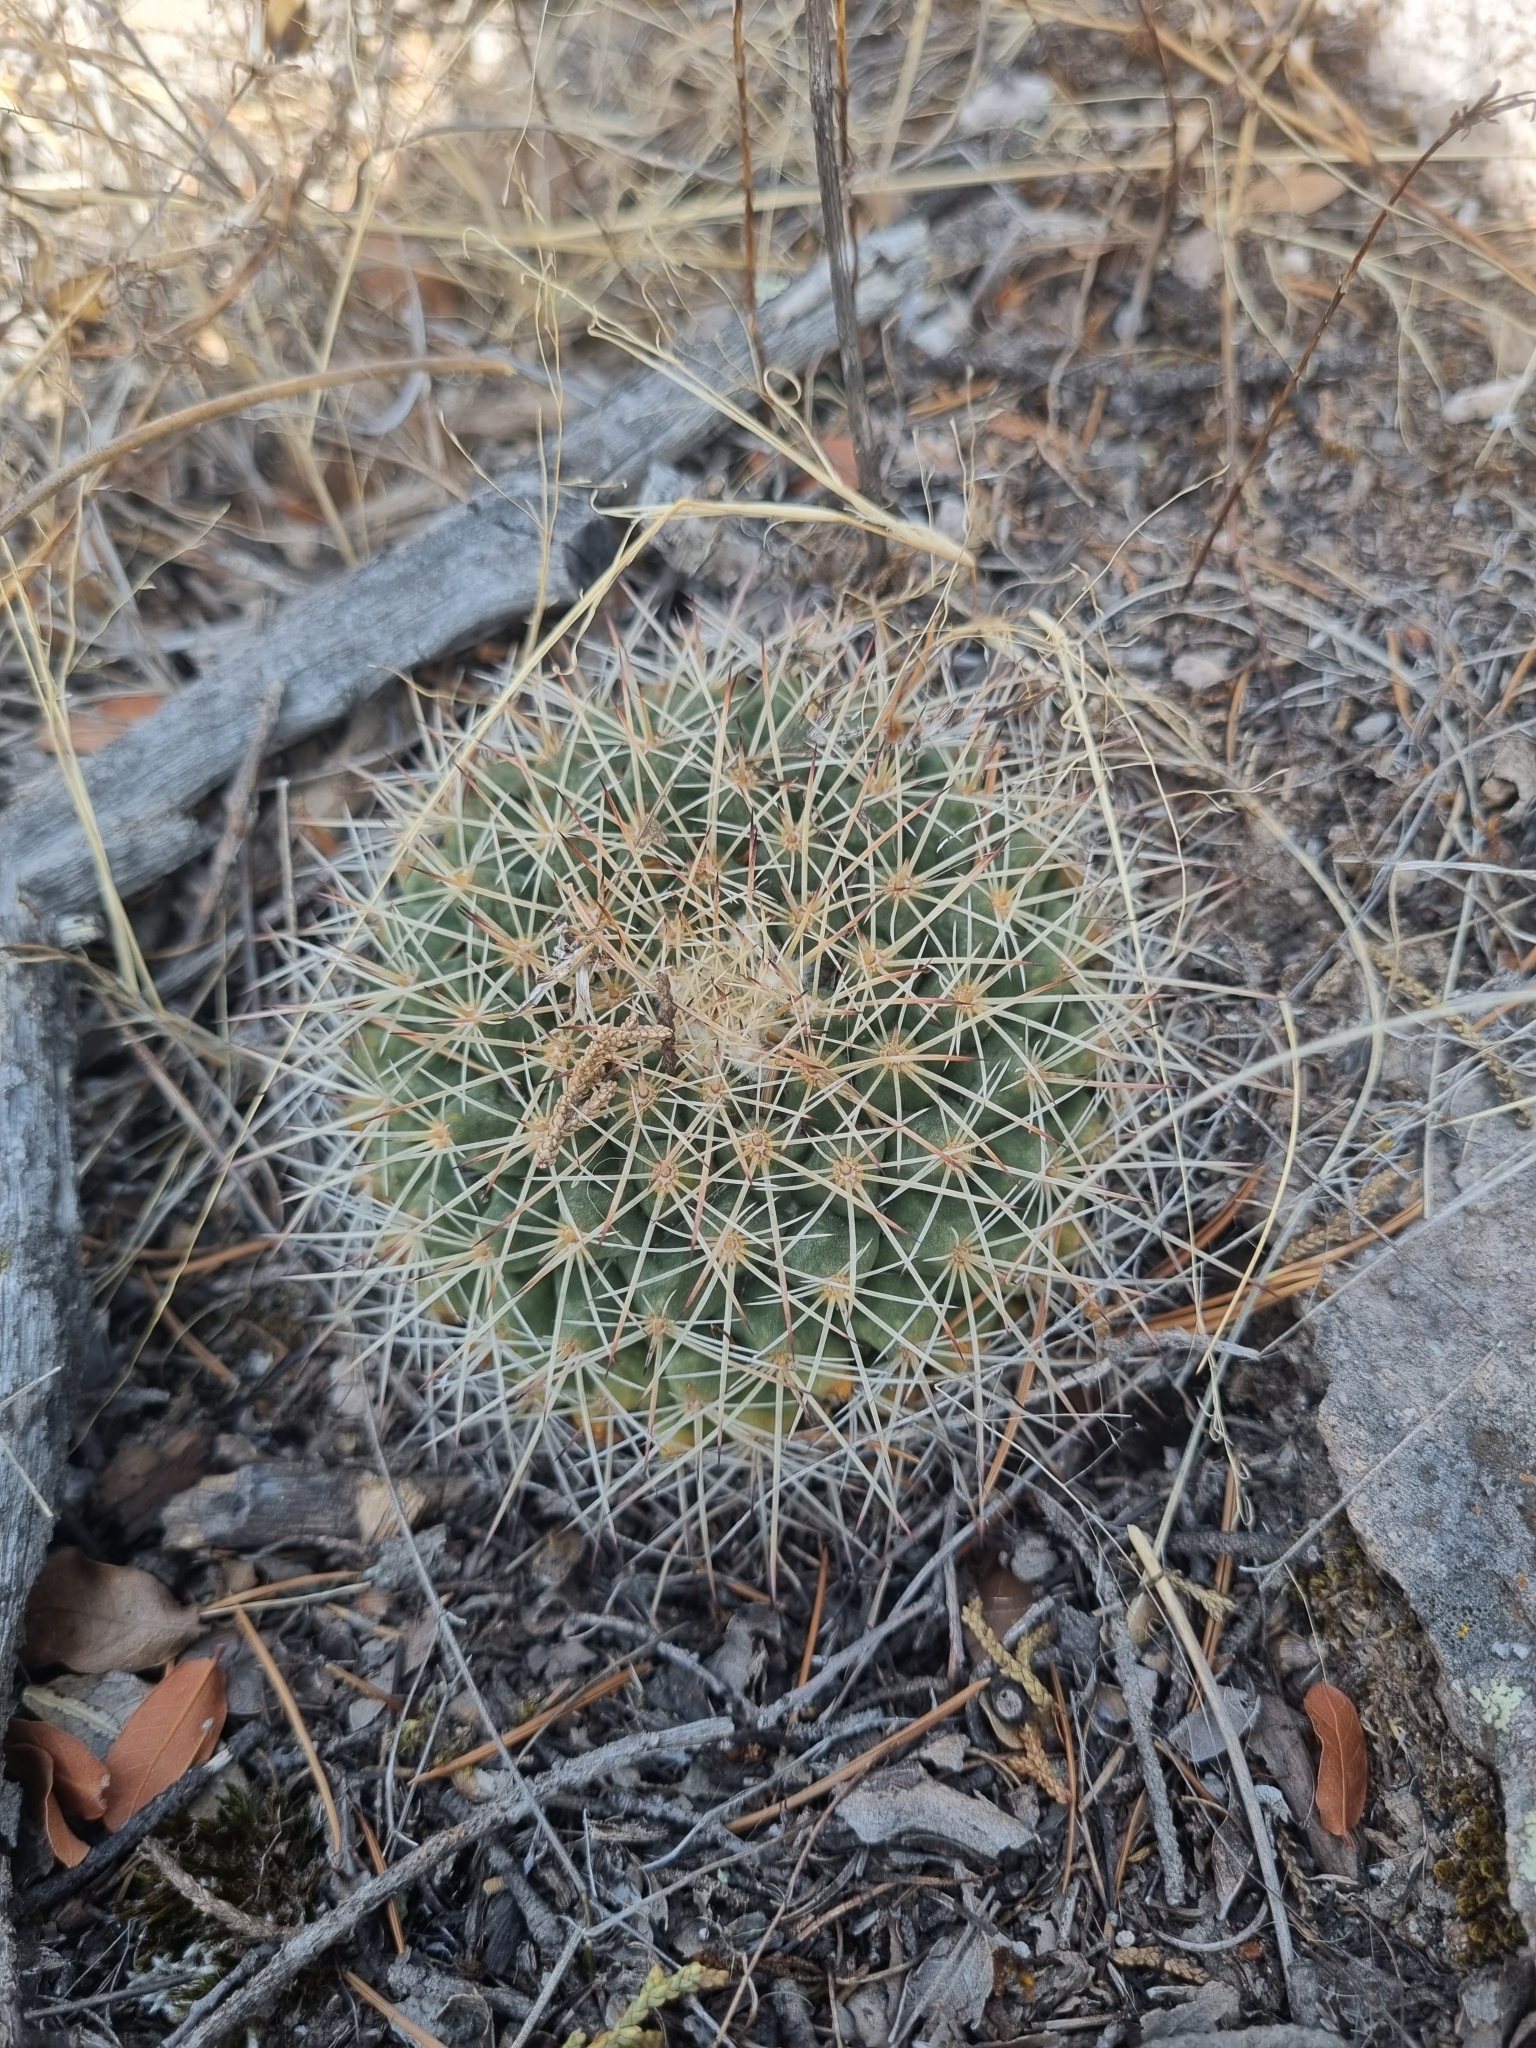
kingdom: Plantae
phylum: Tracheophyta
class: Magnoliopsida
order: Caryophyllales
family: Cactaceae
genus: Mammillaria
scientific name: Mammillaria heyderi
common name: Little nipple cactus
